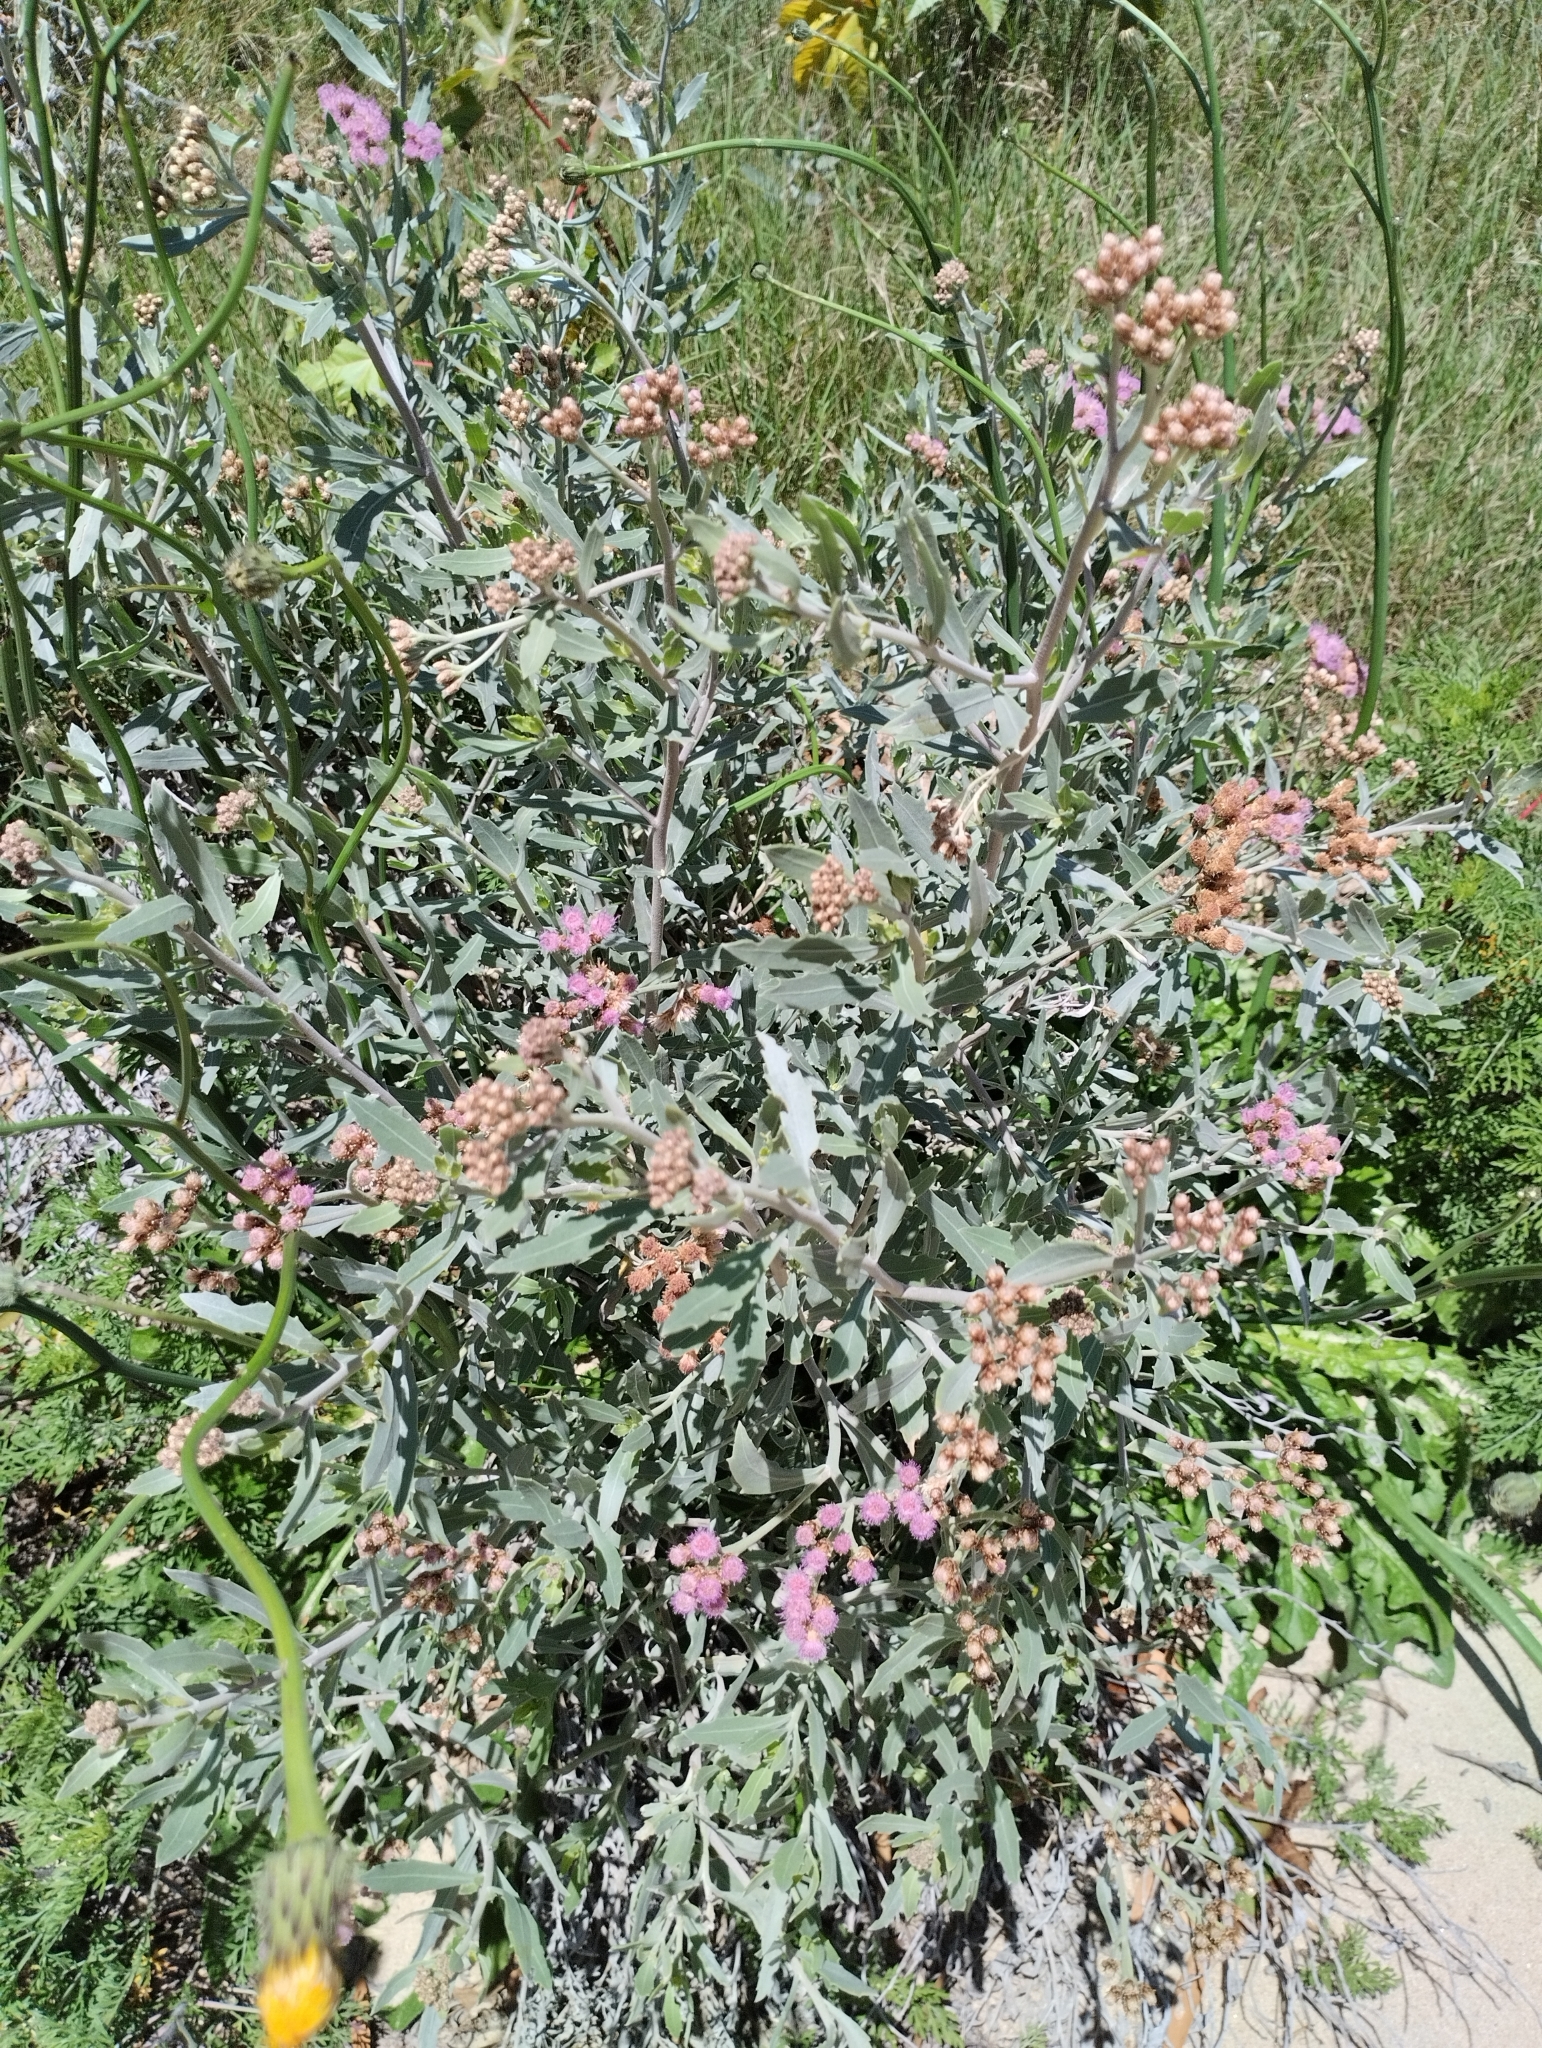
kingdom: Plantae
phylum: Tracheophyta
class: Magnoliopsida
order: Asterales
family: Asteraceae
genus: Tessaria
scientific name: Tessaria absinthioides
